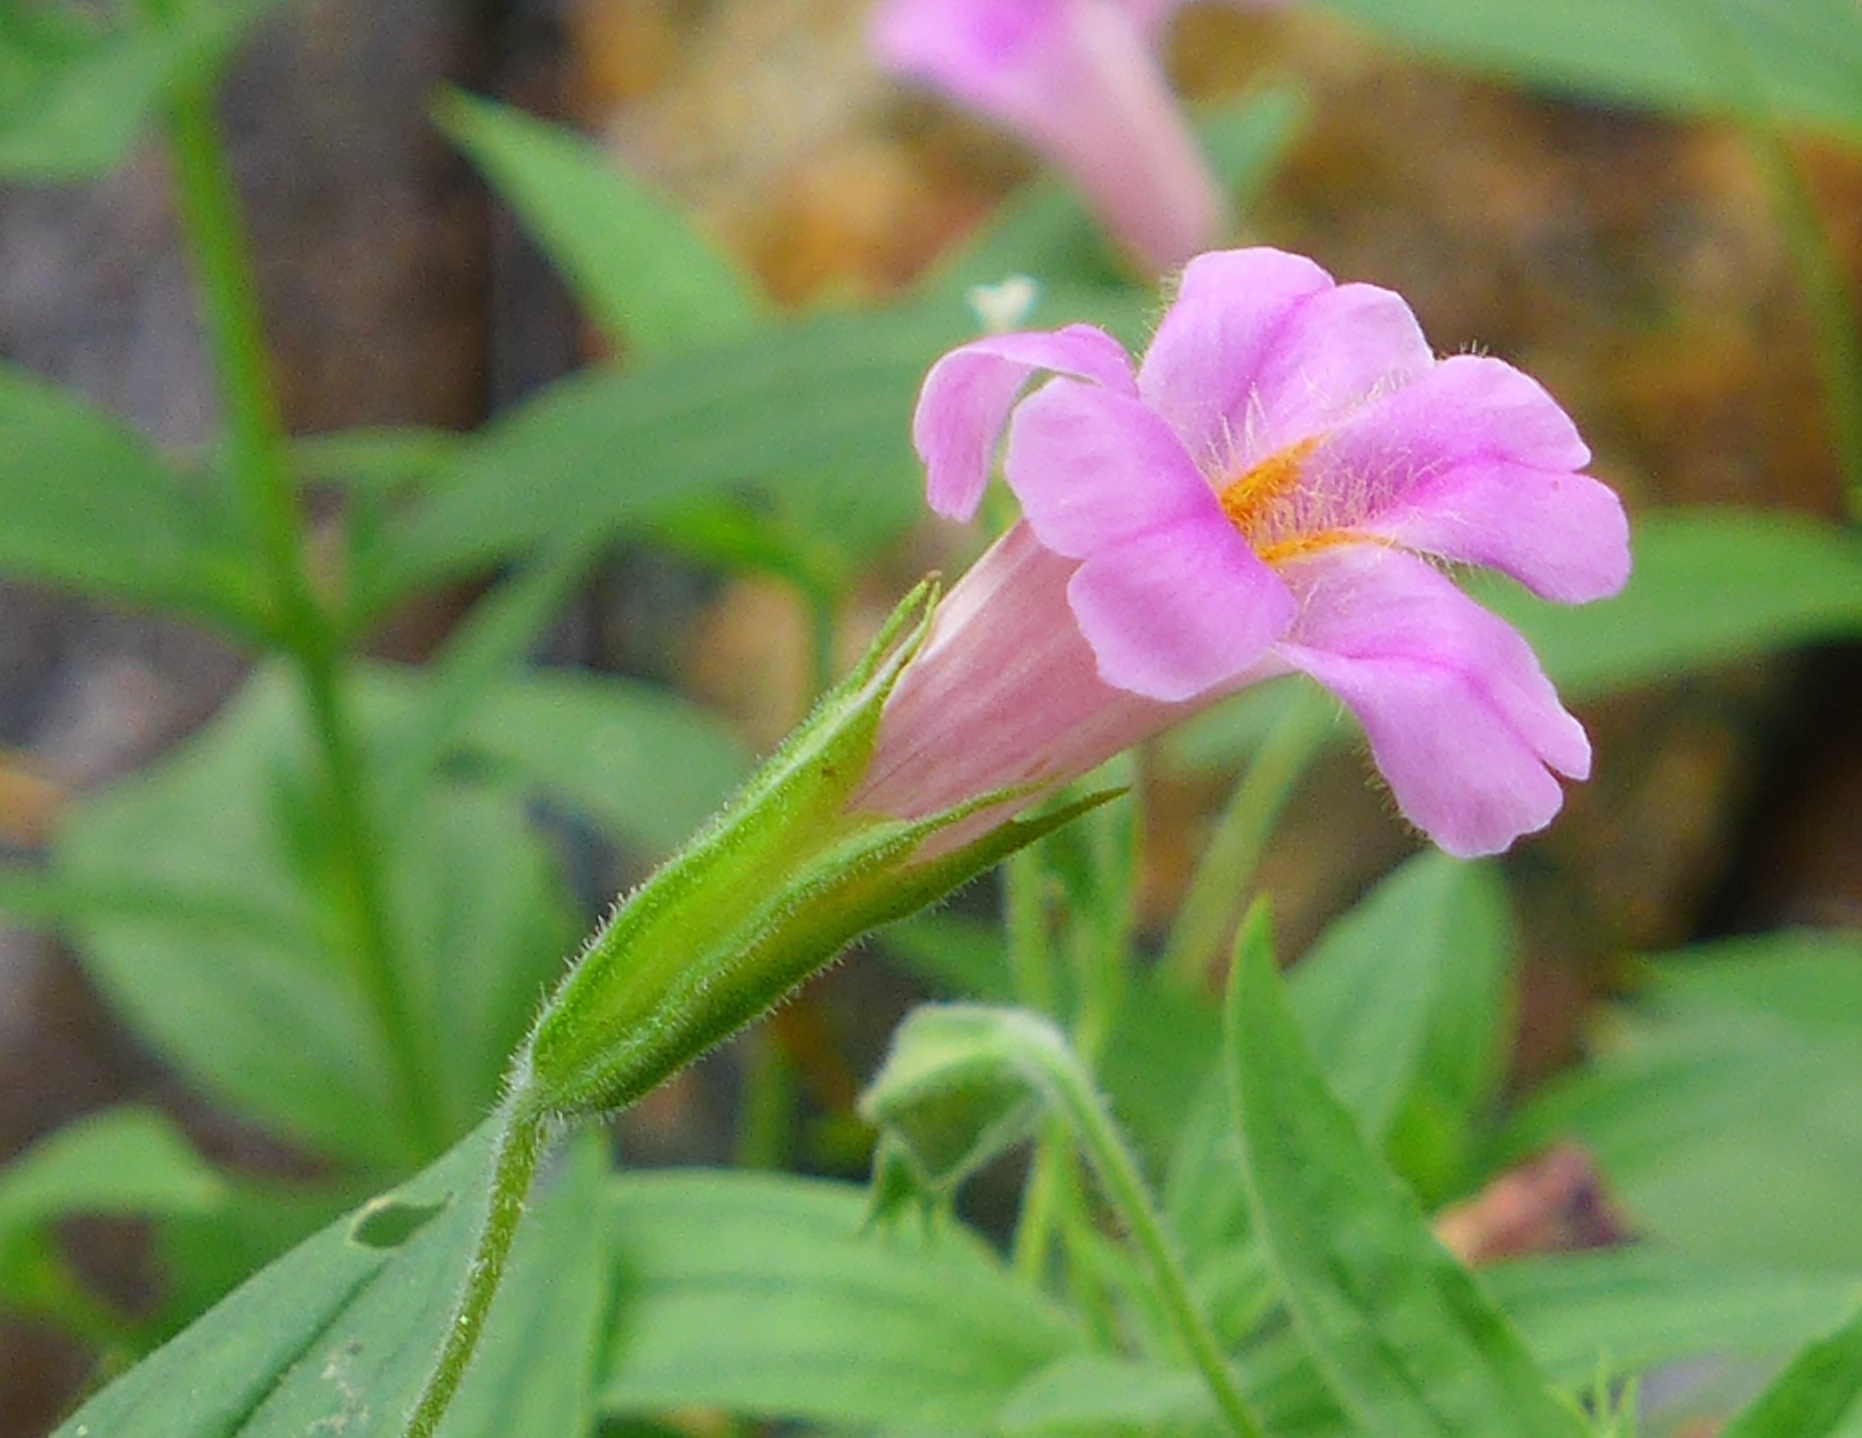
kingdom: Plantae
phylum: Tracheophyta
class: Magnoliopsida
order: Lamiales
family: Phrymaceae
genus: Erythranthe
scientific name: Erythranthe erubescens
